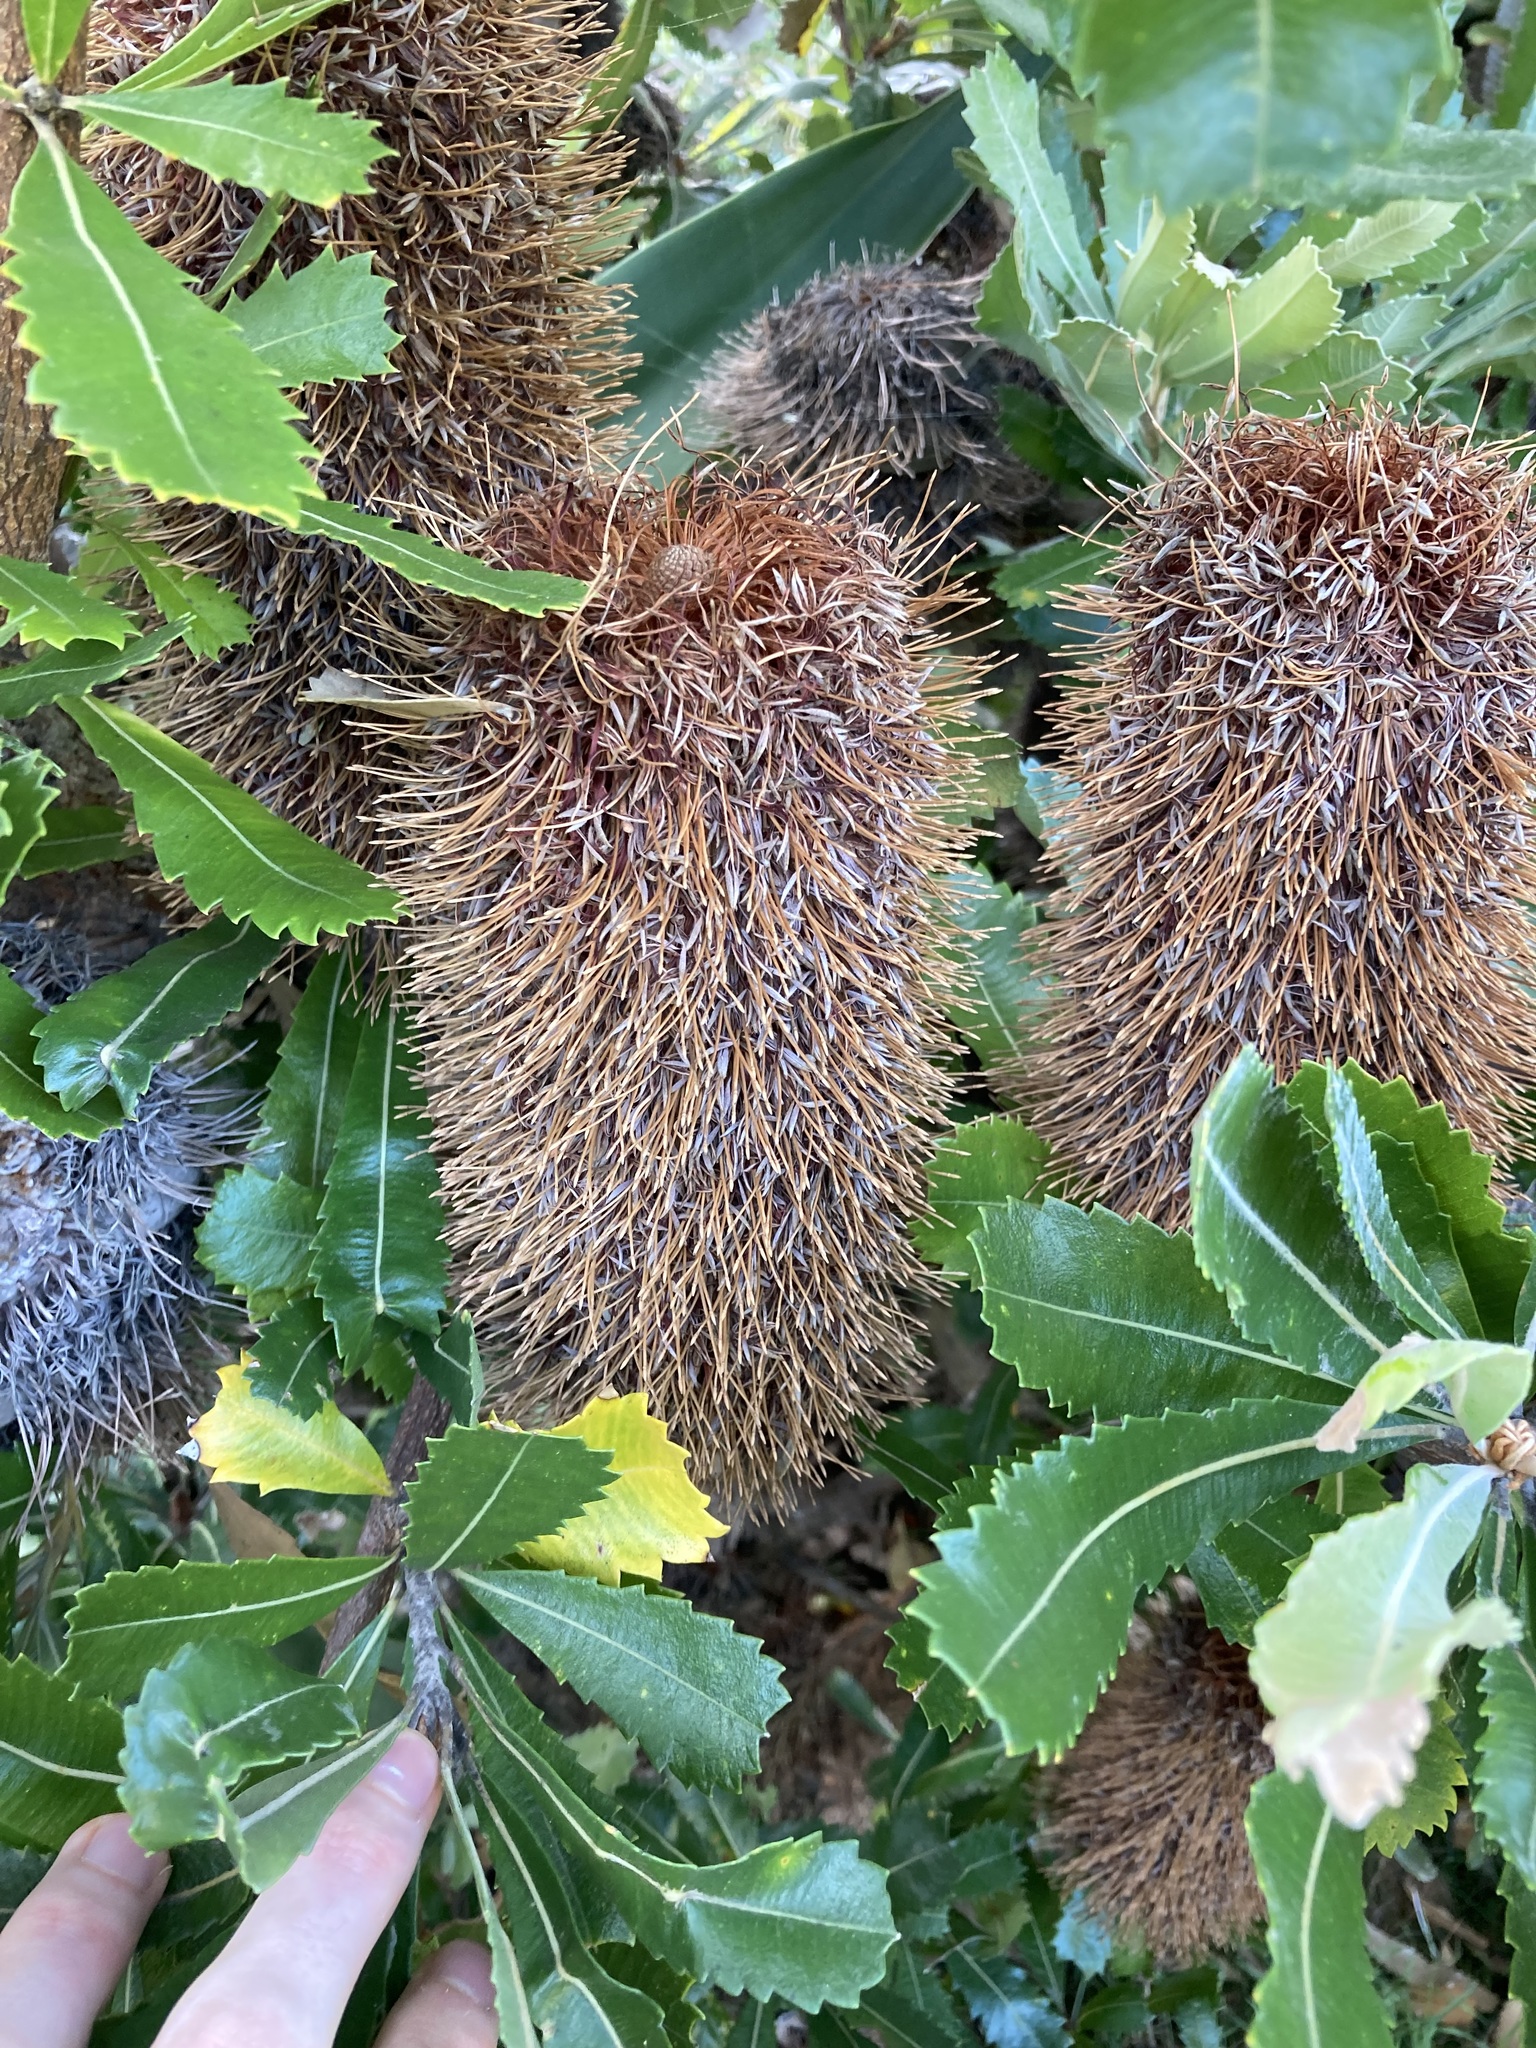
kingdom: Plantae
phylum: Tracheophyta
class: Magnoliopsida
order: Proteales
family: Proteaceae
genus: Banksia
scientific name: Banksia serrata
